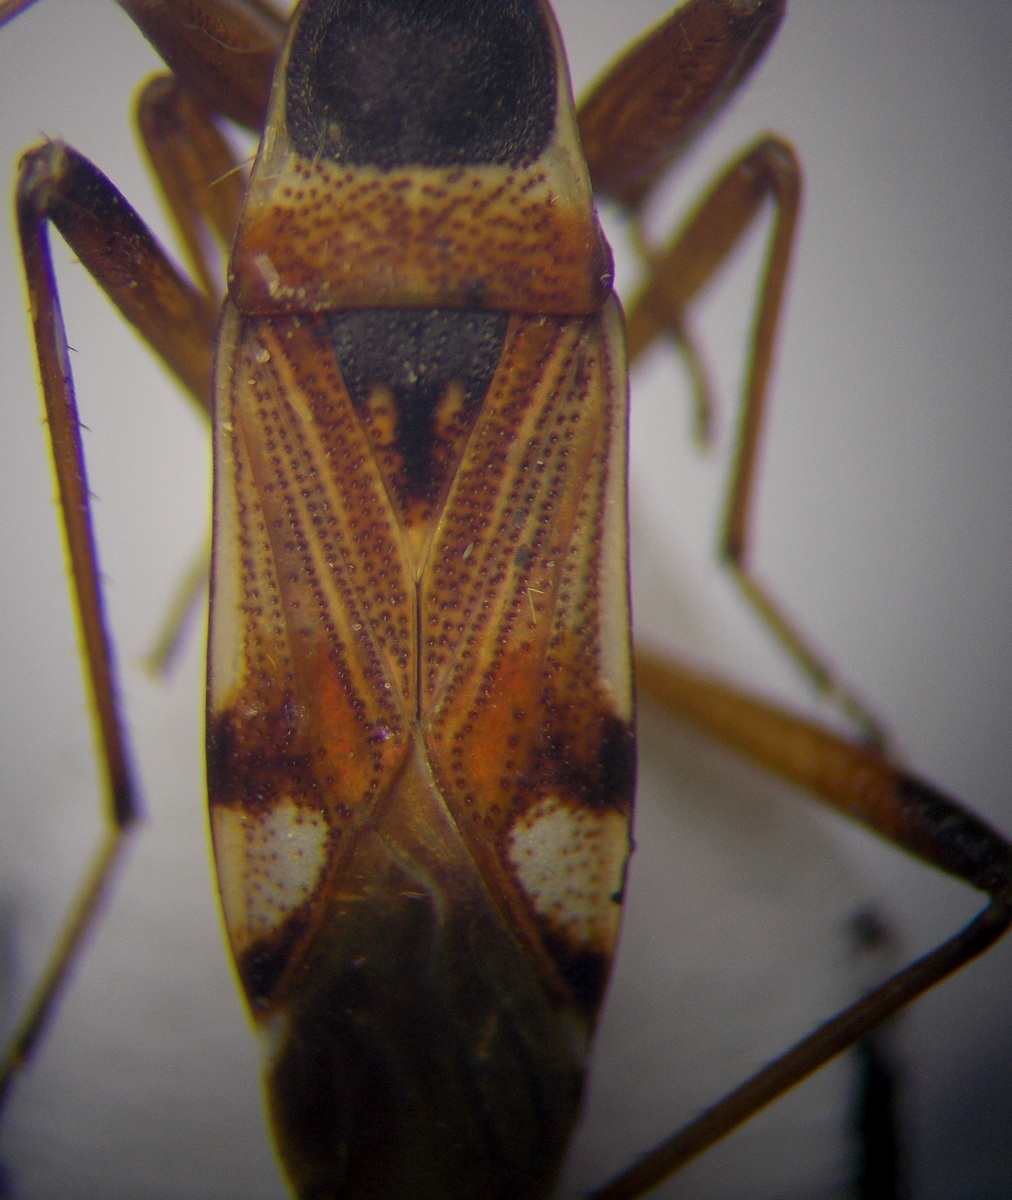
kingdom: Animalia
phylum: Arthropoda
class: Insecta
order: Hemiptera
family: Rhyparochromidae
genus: Beosus
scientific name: Beosus quadripunctatus
